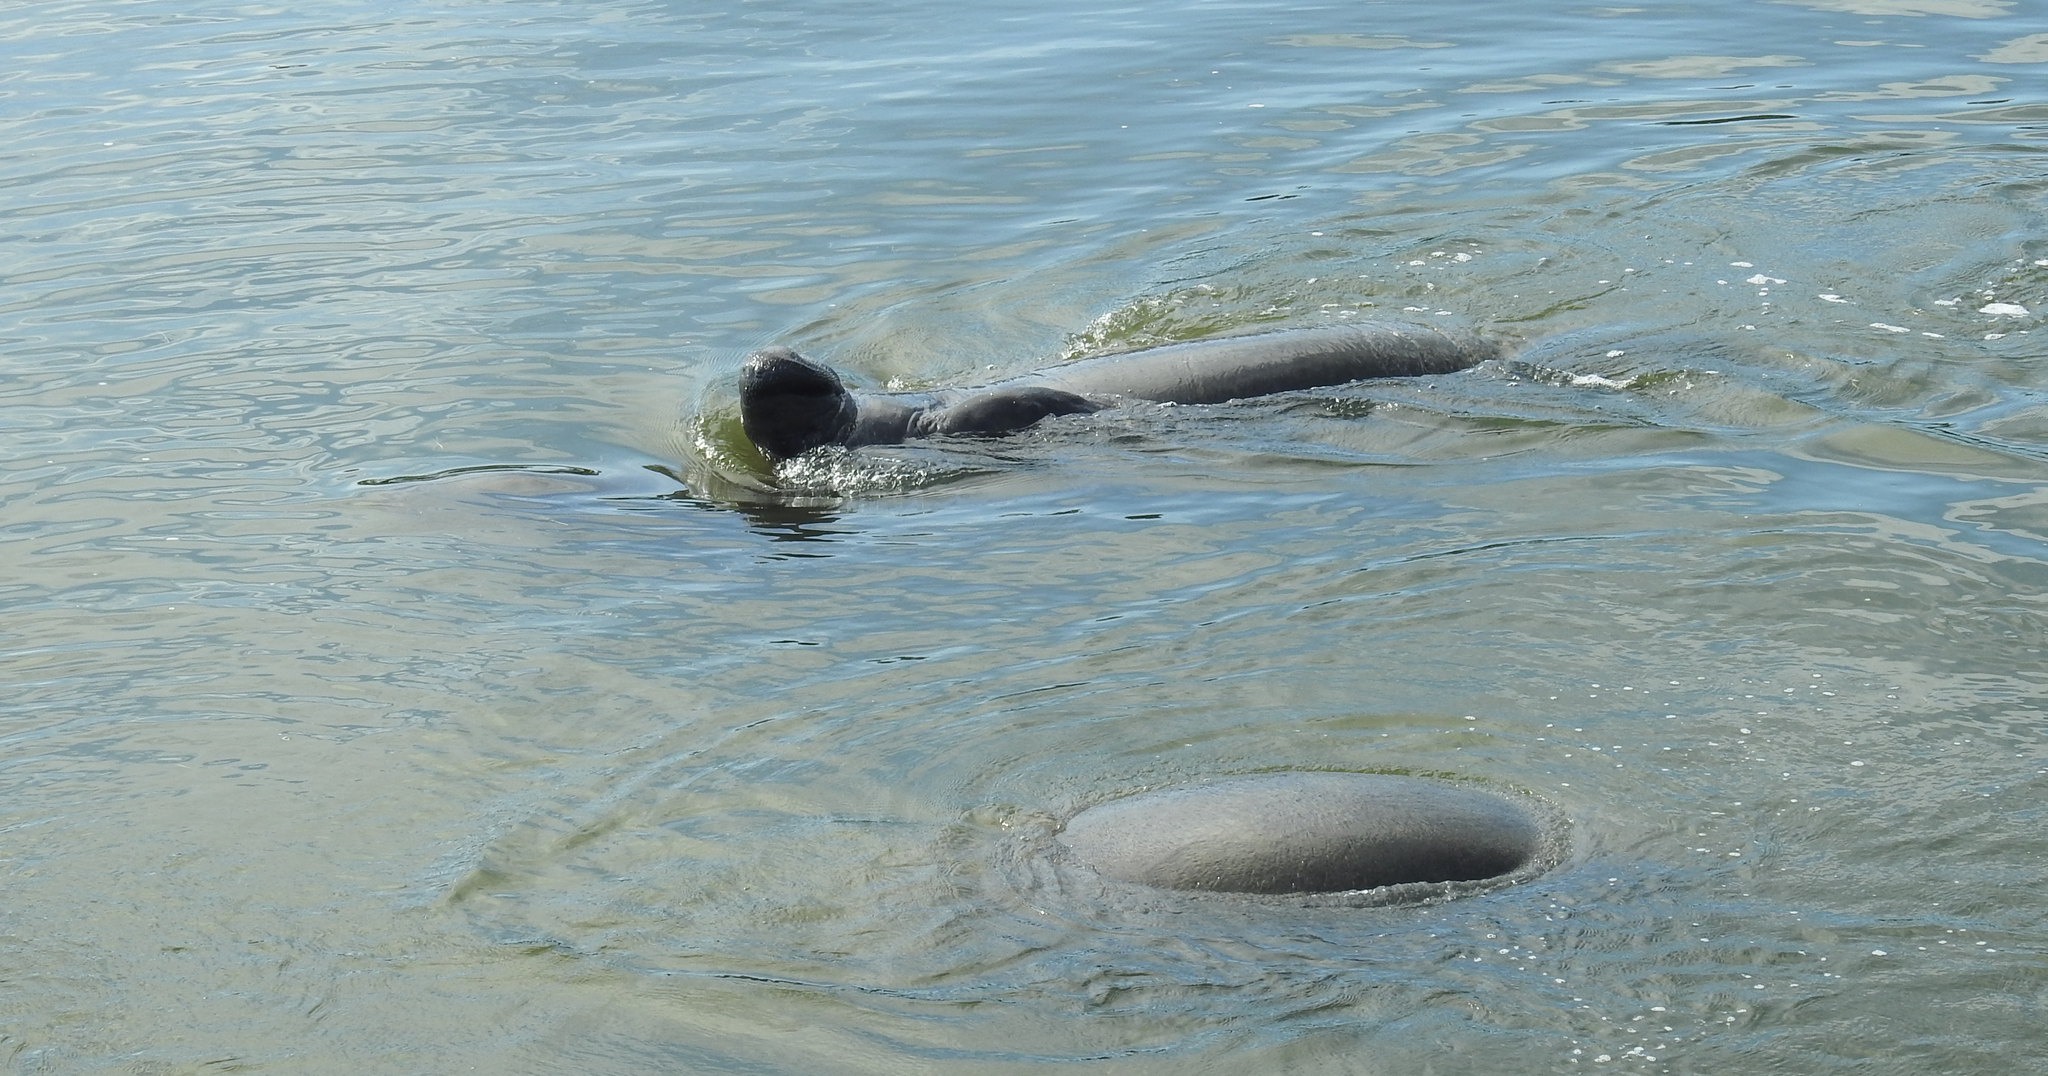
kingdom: Animalia
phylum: Chordata
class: Mammalia
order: Sirenia
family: Trichechidae
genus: Trichechus
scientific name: Trichechus manatus
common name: West indian manatee
